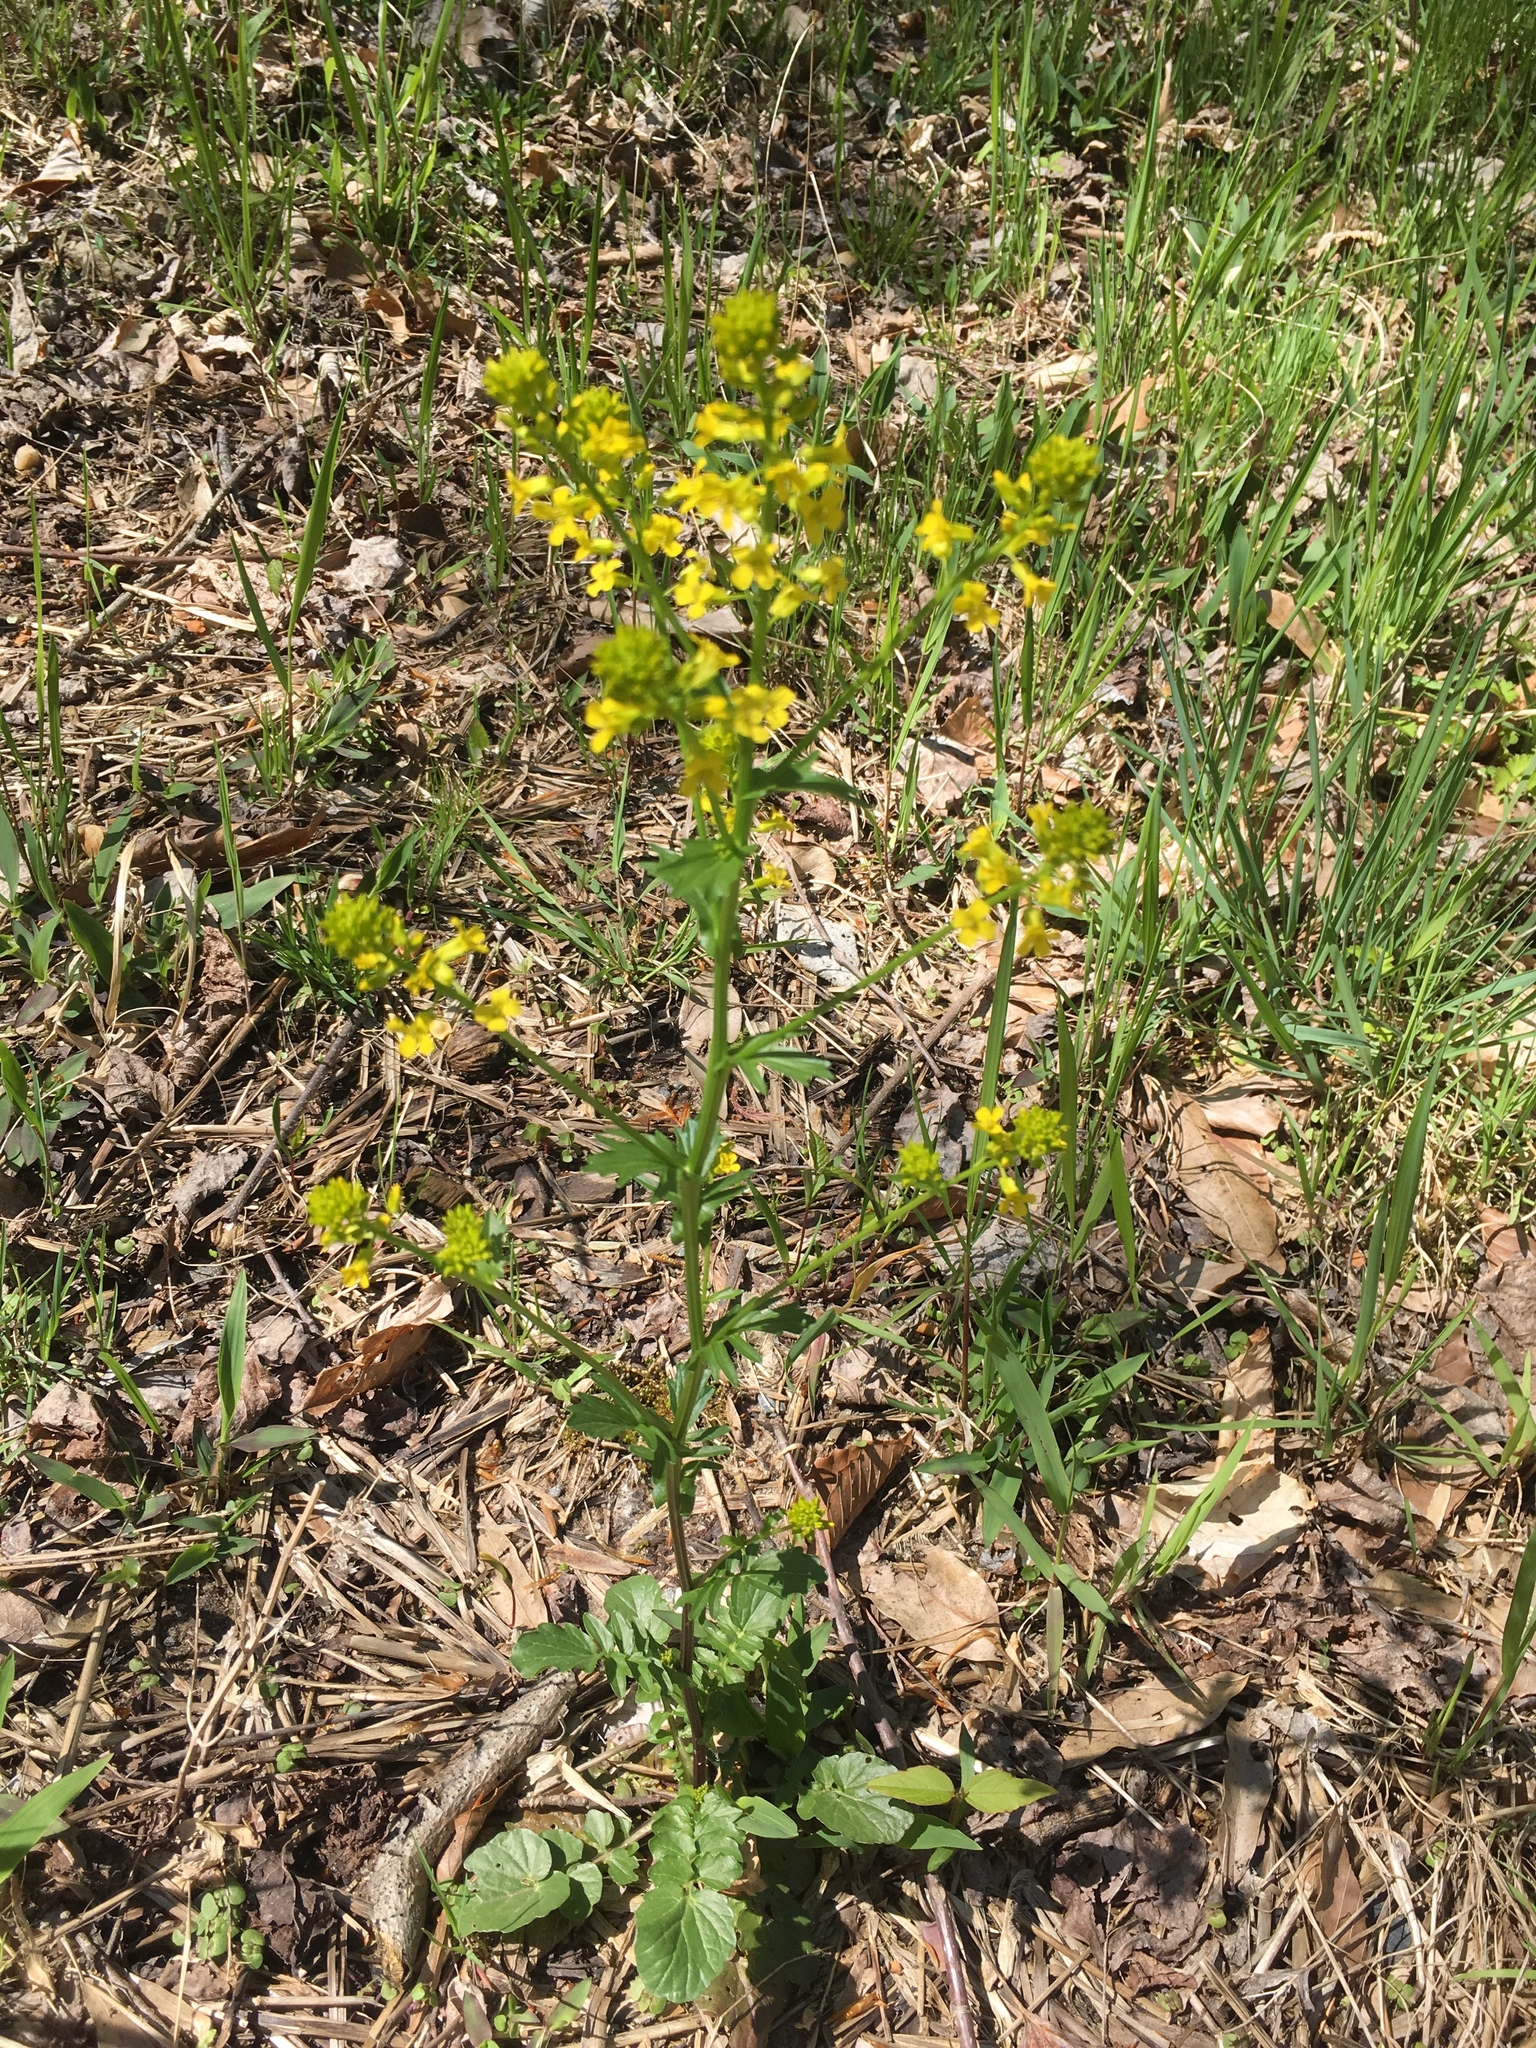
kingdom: Plantae
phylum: Tracheophyta
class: Magnoliopsida
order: Brassicales
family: Brassicaceae
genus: Barbarea
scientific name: Barbarea vulgaris
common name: Cressy-greens
